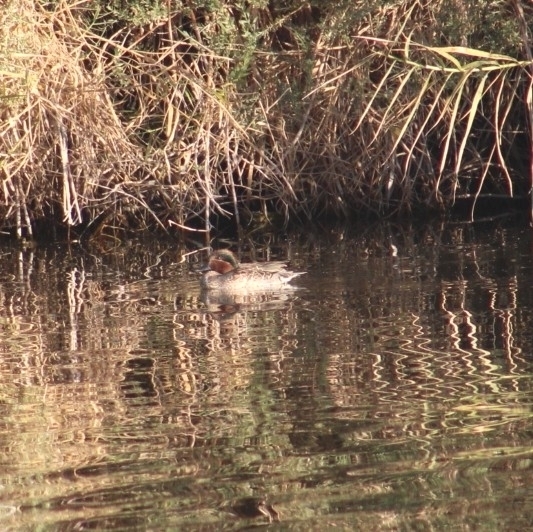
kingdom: Animalia
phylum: Chordata
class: Aves
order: Anseriformes
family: Anatidae
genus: Anas
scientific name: Anas crecca
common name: Eurasian teal
